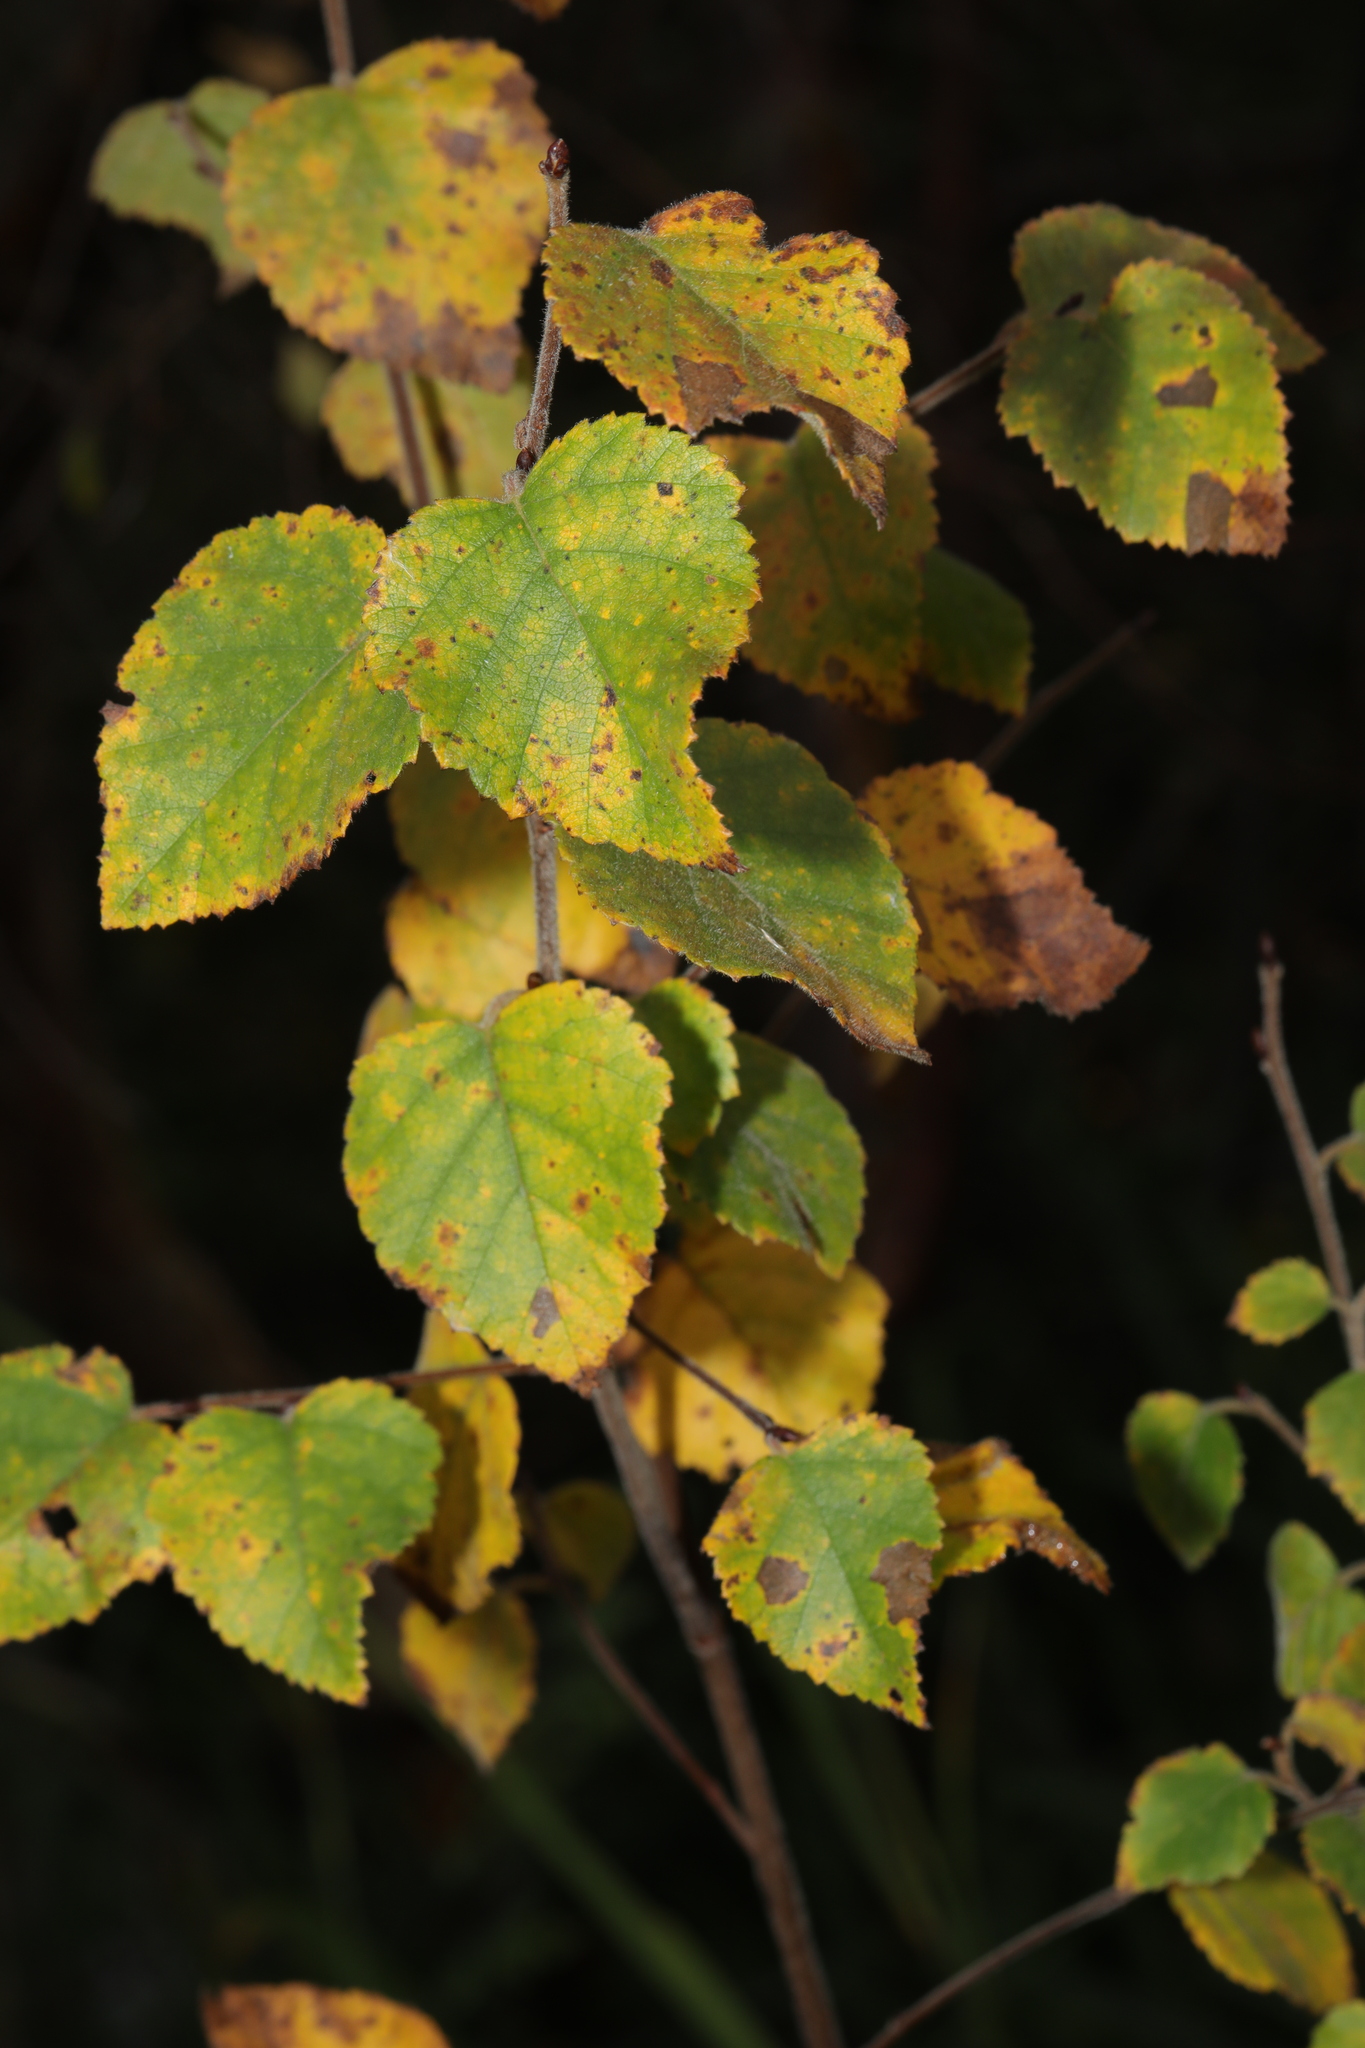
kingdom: Plantae
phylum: Tracheophyta
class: Magnoliopsida
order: Fagales
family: Betulaceae
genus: Betula
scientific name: Betula pendula
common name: Silver birch
